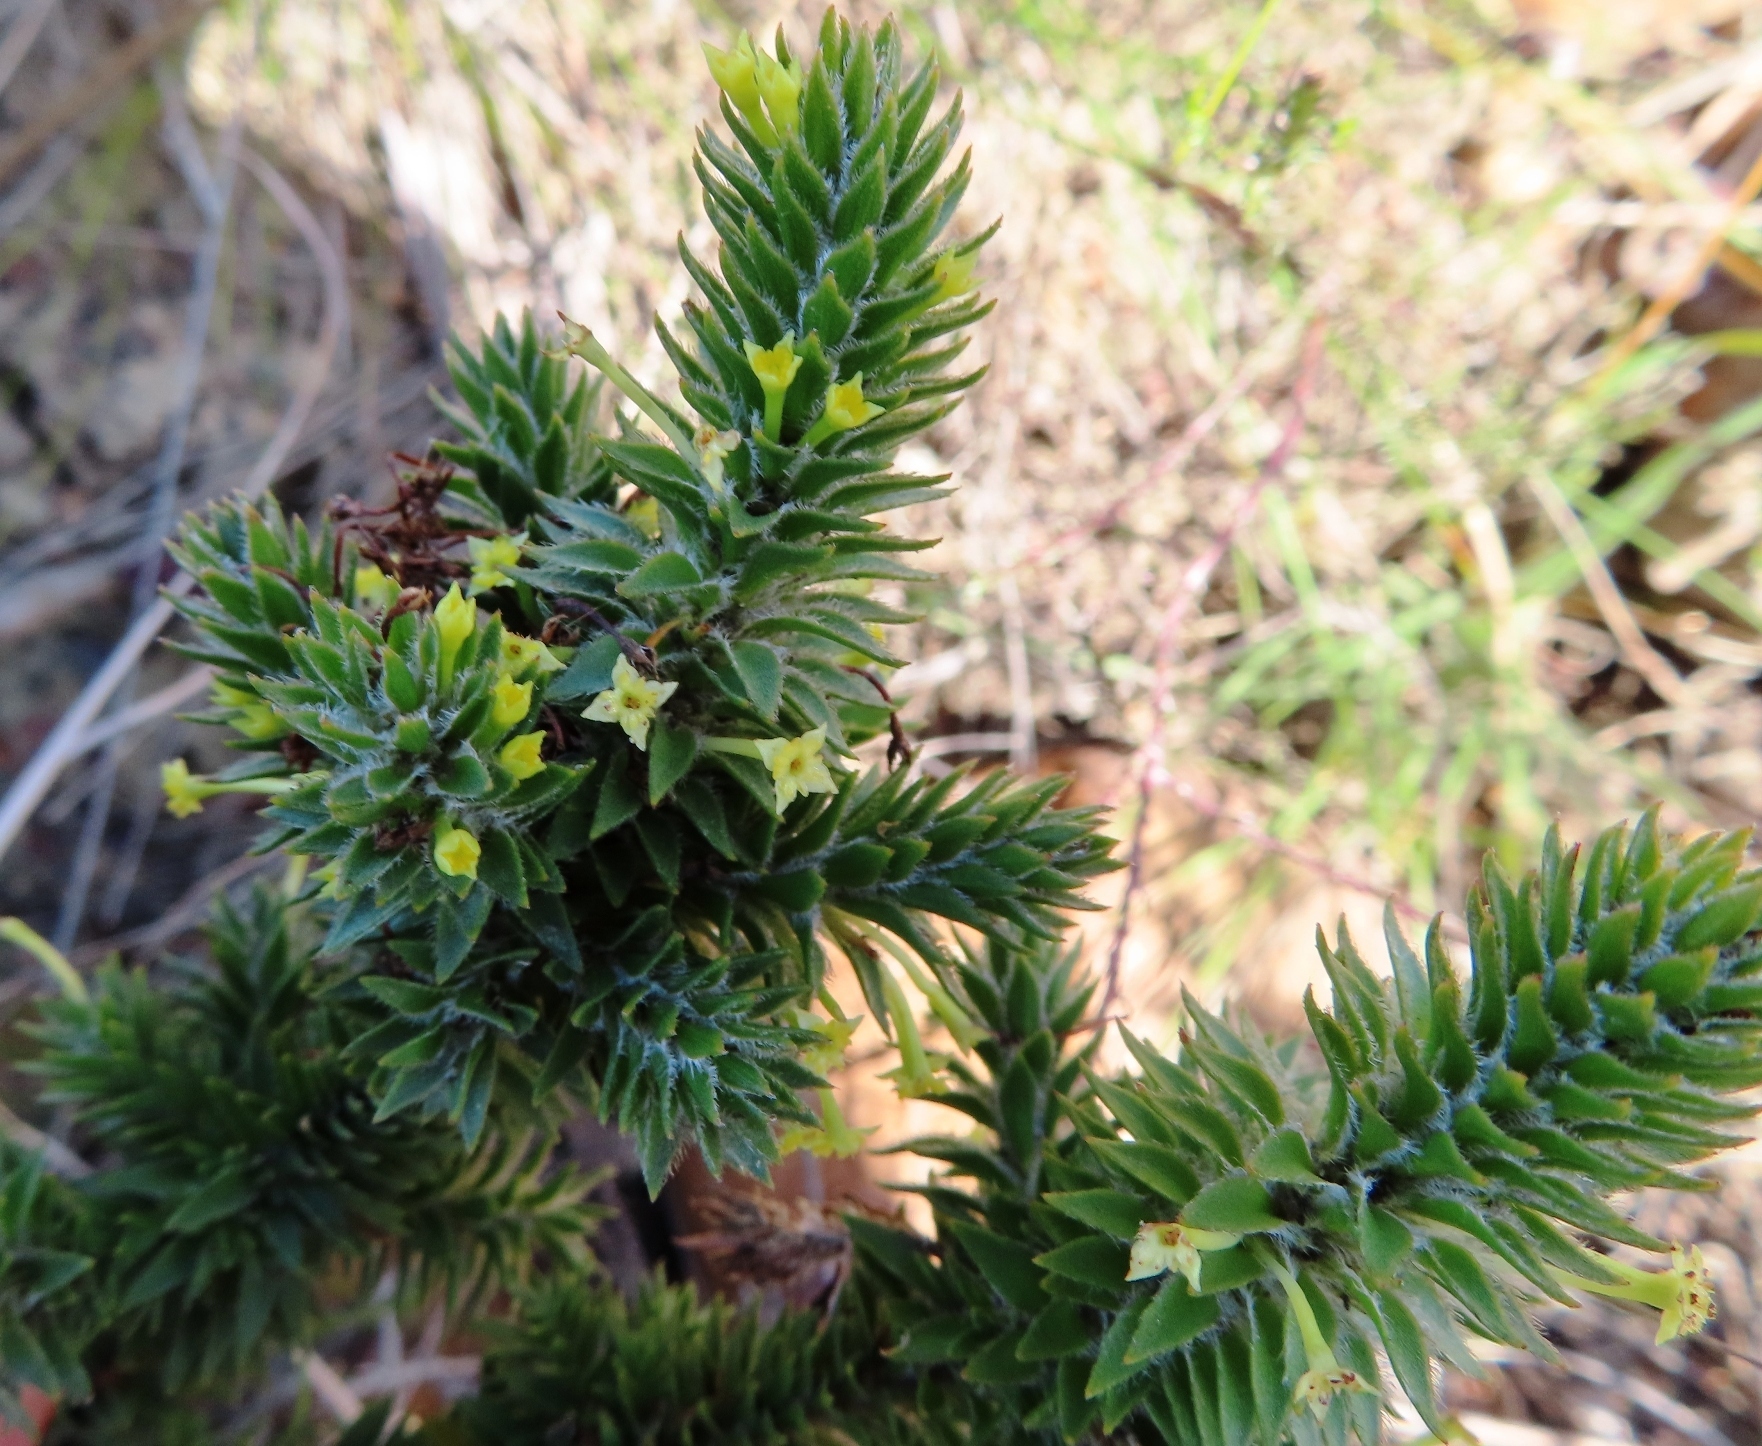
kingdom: Plantae
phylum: Tracheophyta
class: Magnoliopsida
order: Malvales
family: Thymelaeaceae
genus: Struthiola
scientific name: Struthiola mundtii
